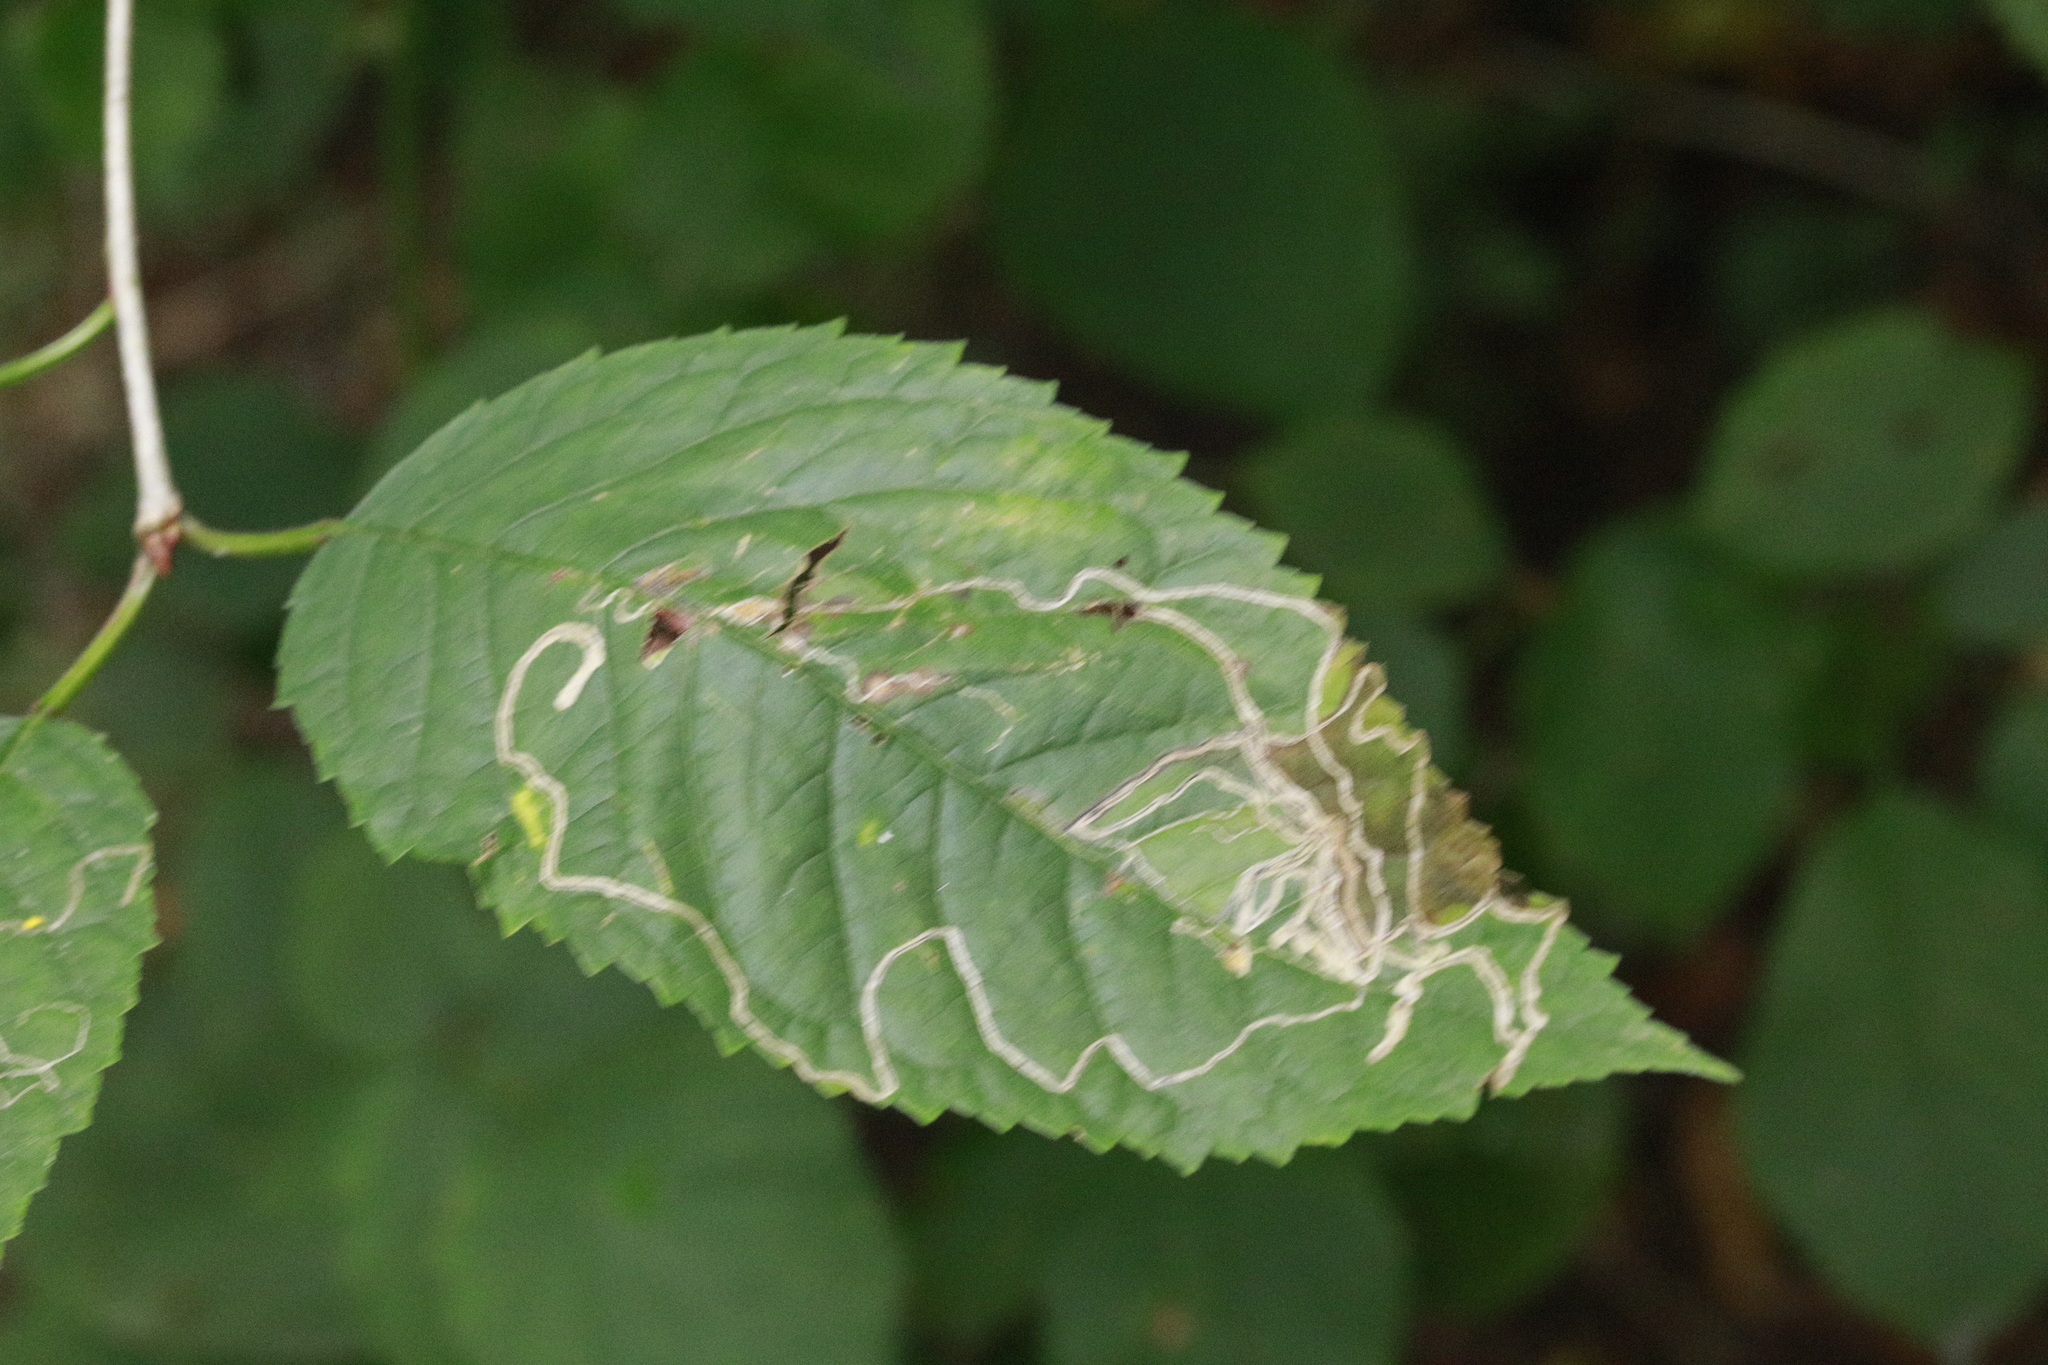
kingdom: Animalia
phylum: Arthropoda
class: Insecta
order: Lepidoptera
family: Lyonetiidae
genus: Lyonetia
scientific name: Lyonetia clerkella
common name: Apple leaf miner
